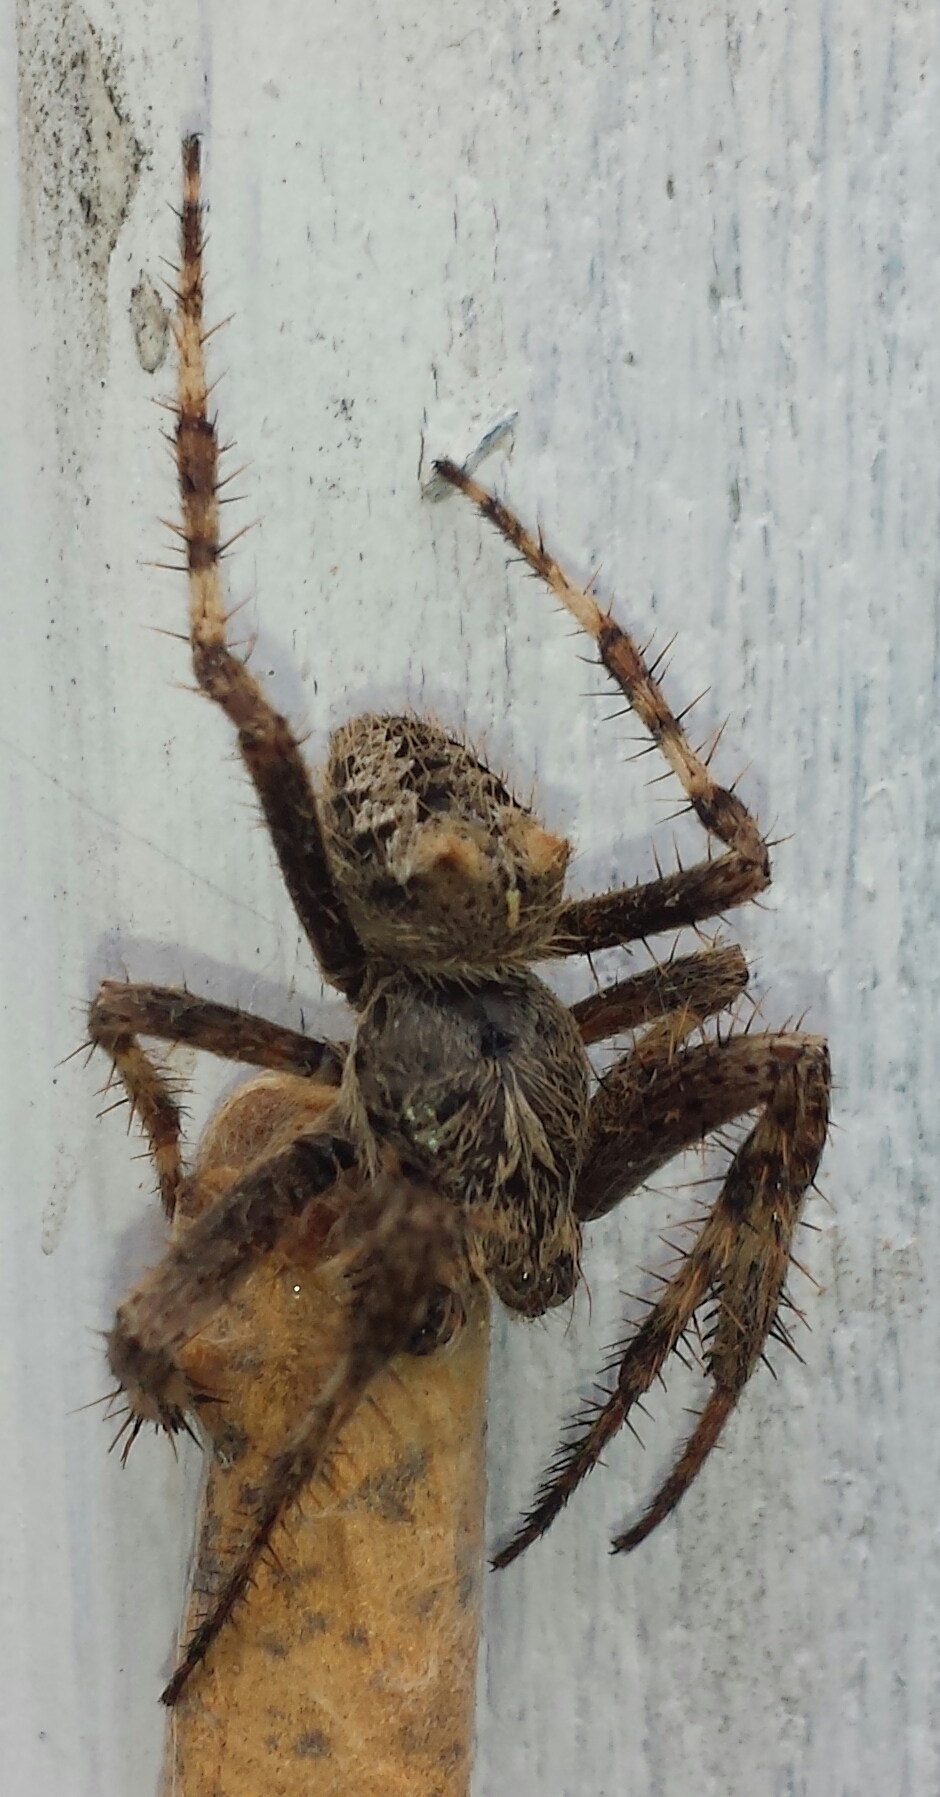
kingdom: Animalia
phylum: Arthropoda
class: Arachnida
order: Araneae
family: Araneidae
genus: Araneus
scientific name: Araneus saevus
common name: Fierce orbweaver
